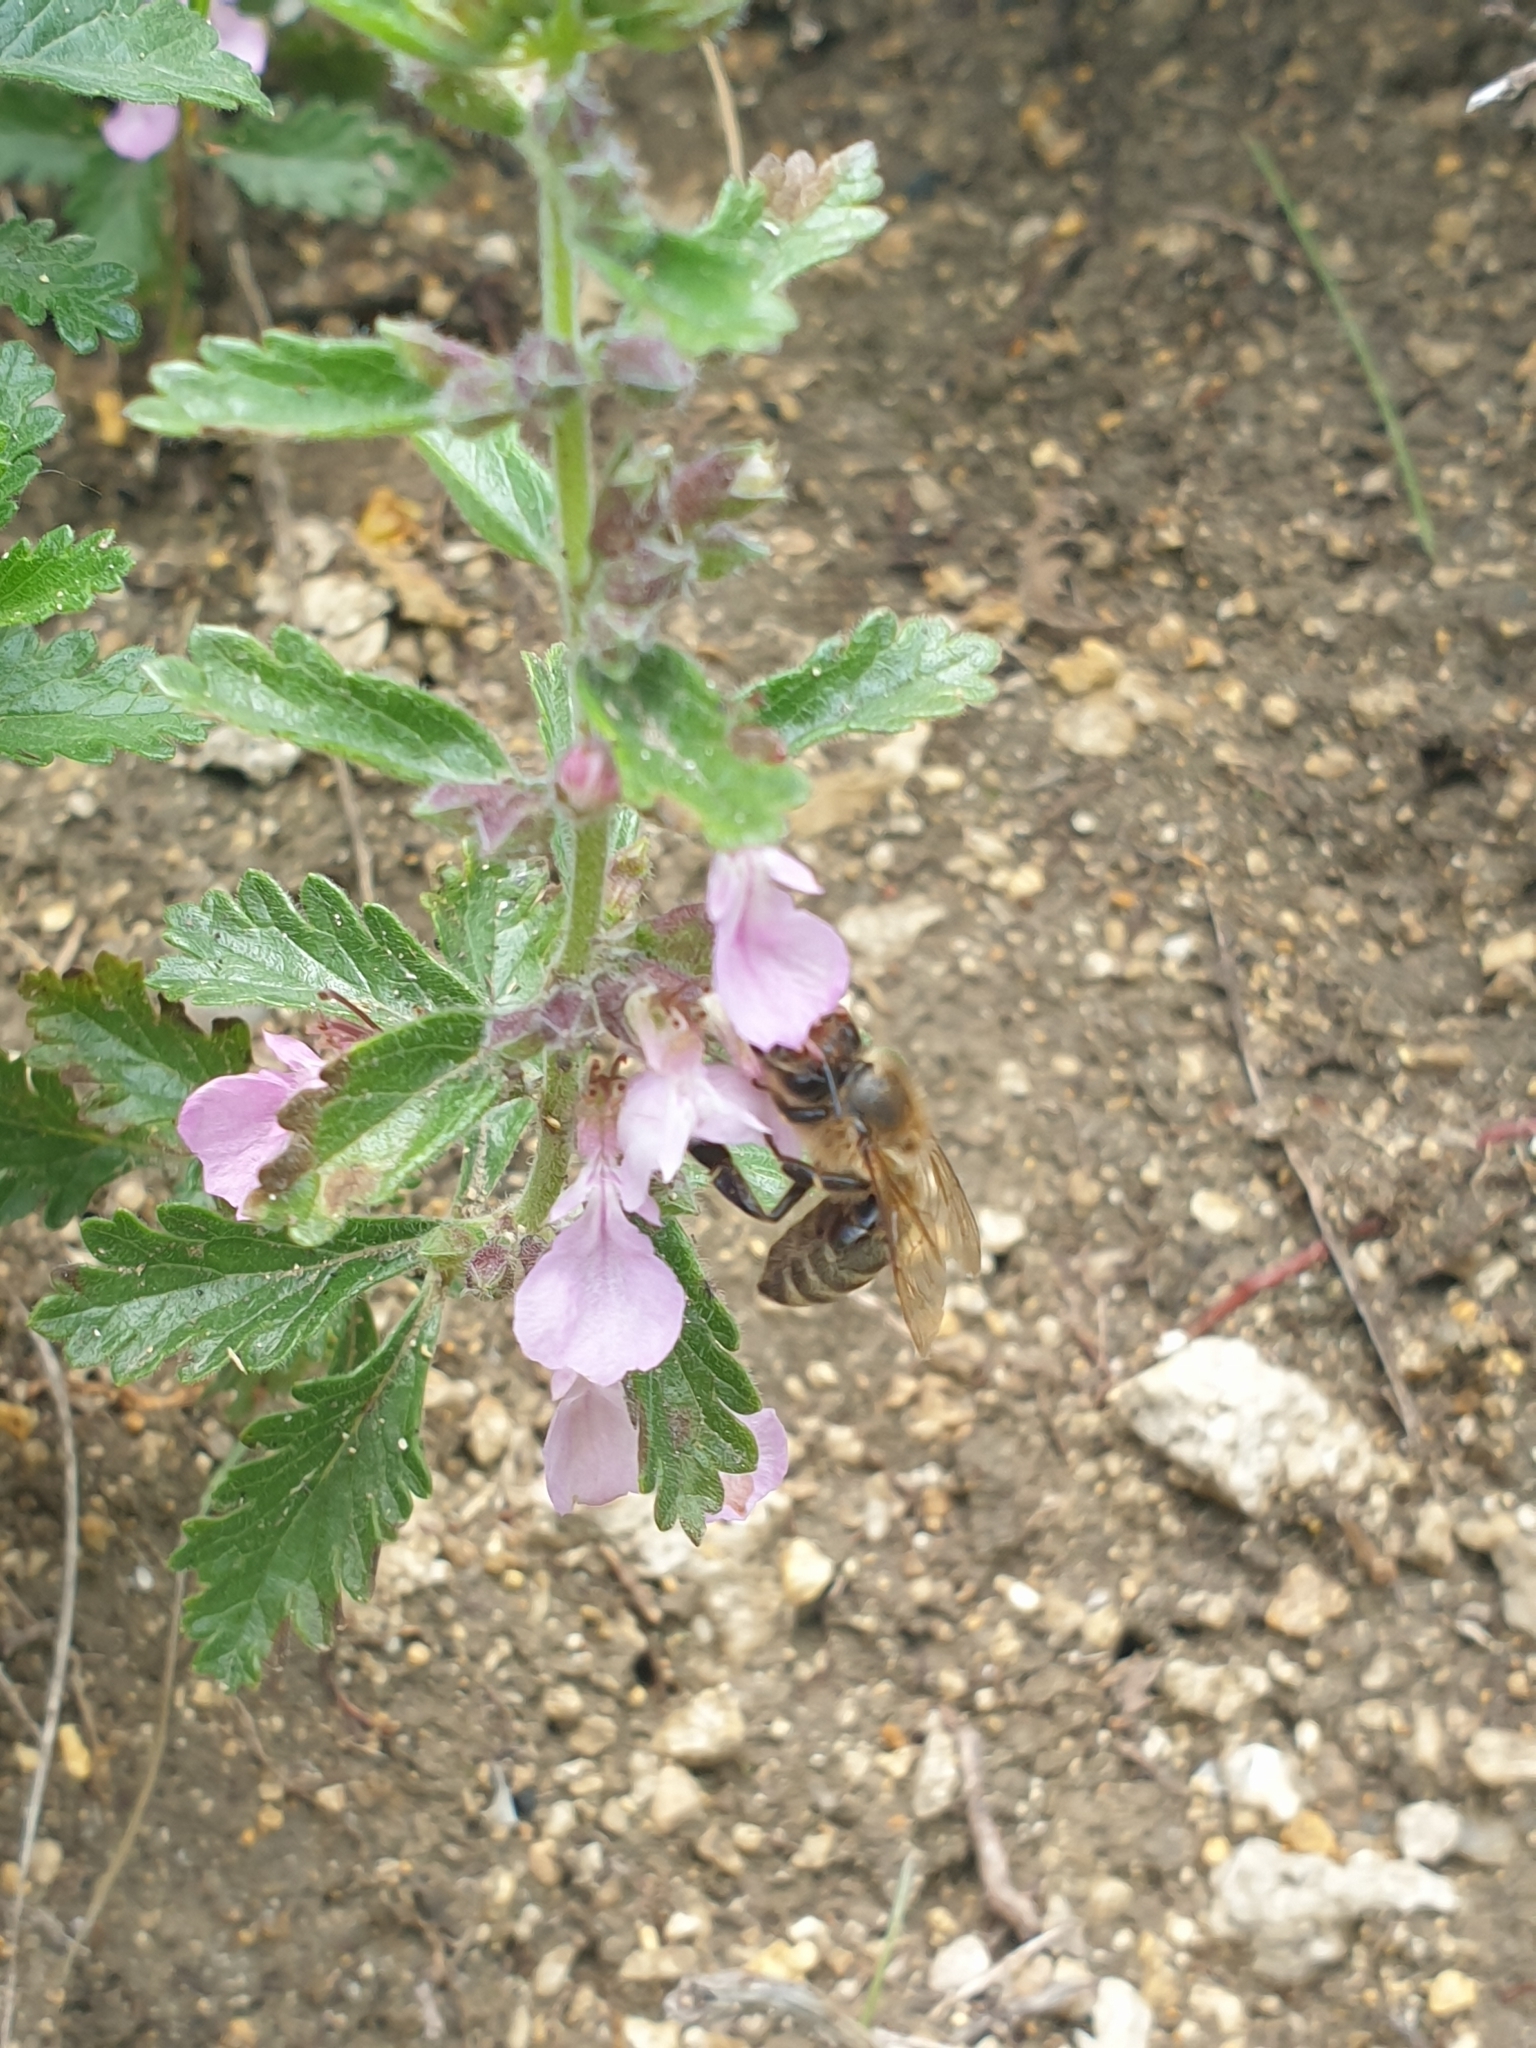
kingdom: Animalia
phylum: Arthropoda
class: Insecta
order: Hymenoptera
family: Apidae
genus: Apis
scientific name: Apis mellifera
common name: Honey bee
